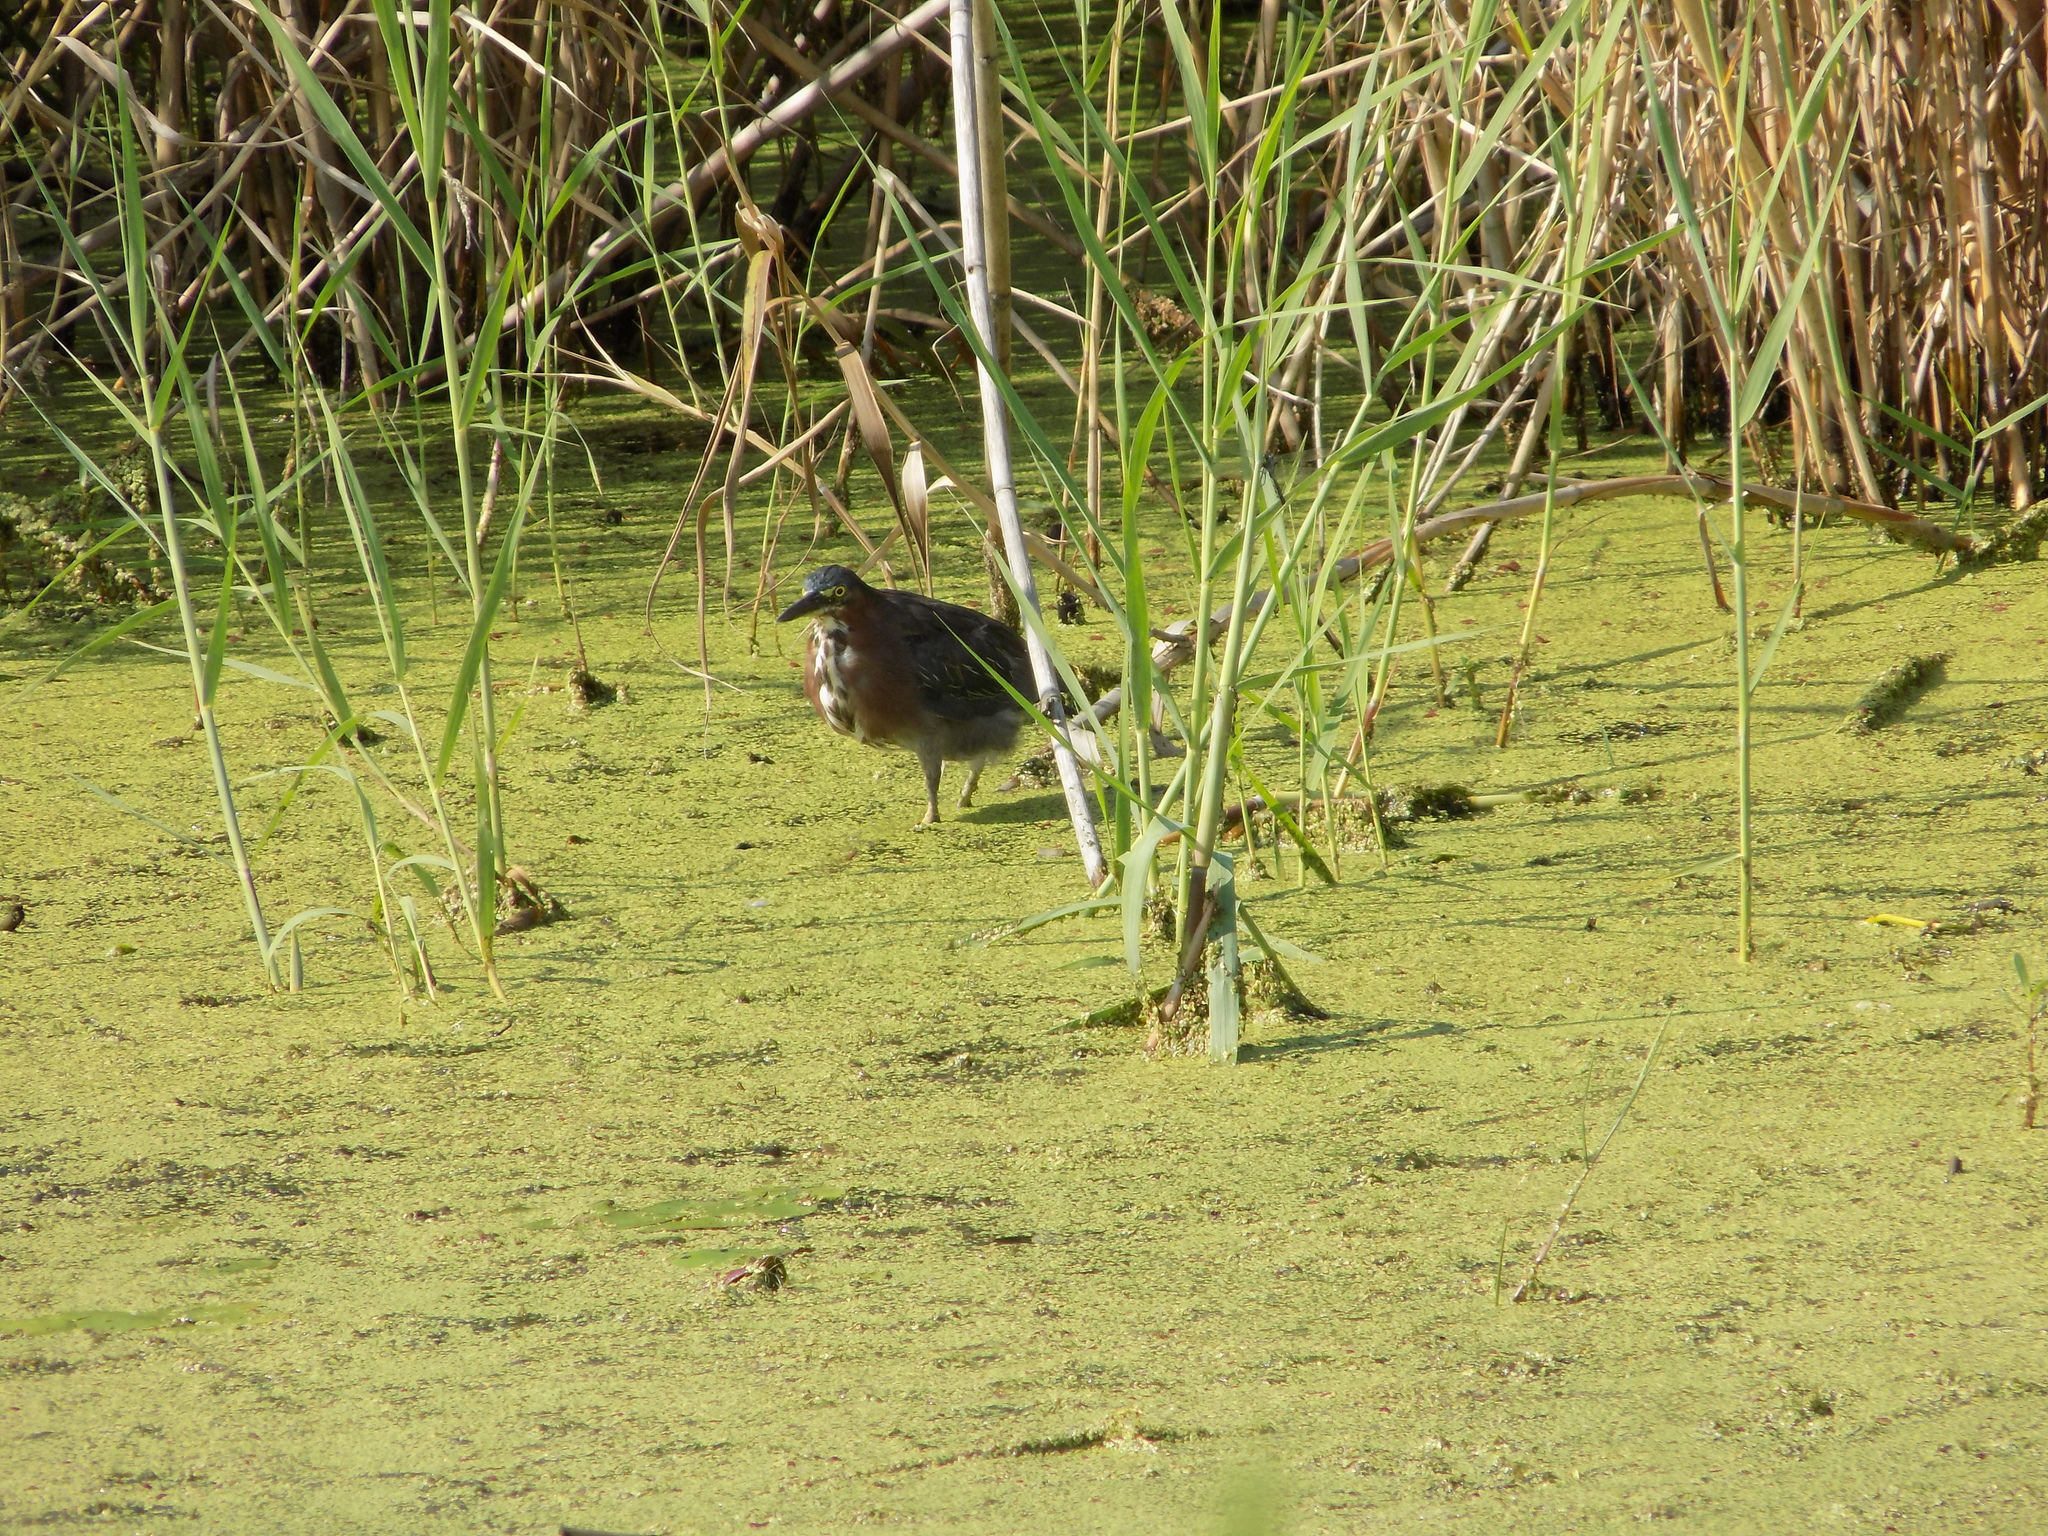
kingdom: Animalia
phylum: Chordata
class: Aves
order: Pelecaniformes
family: Ardeidae
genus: Butorides
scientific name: Butorides virescens
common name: Green heron
